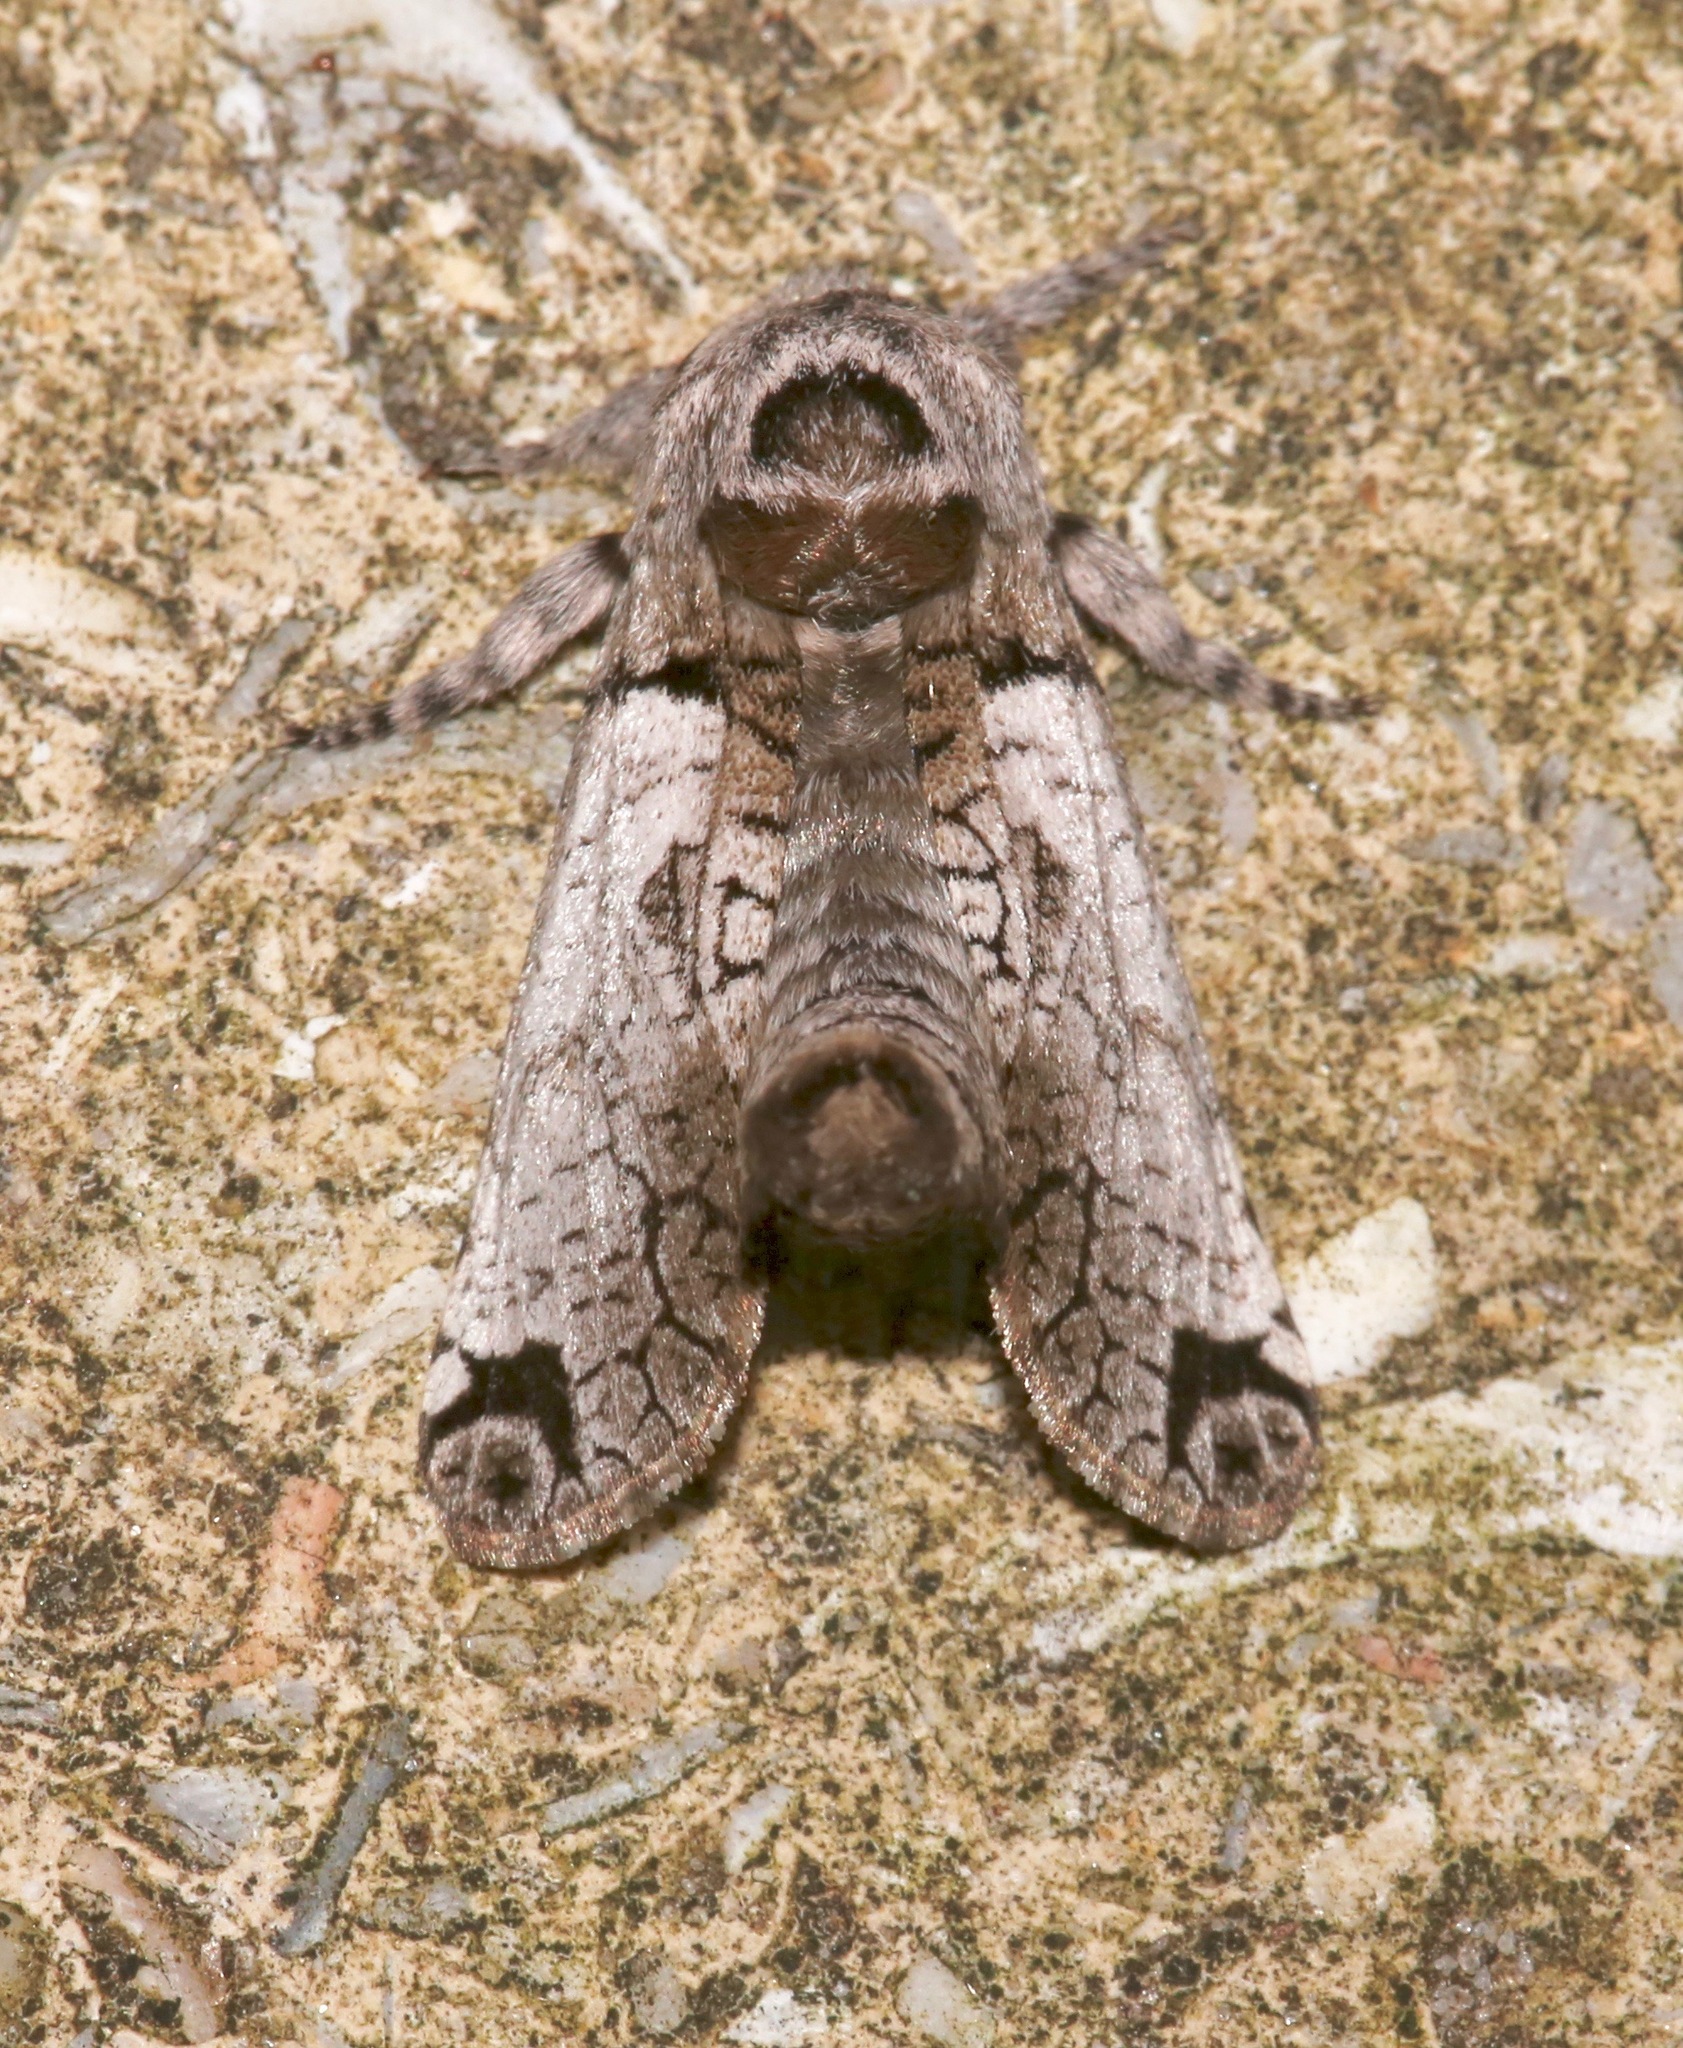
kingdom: Animalia
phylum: Arthropoda
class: Insecta
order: Lepidoptera
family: Cossidae
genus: Inguromorpha
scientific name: Inguromorpha basalis
